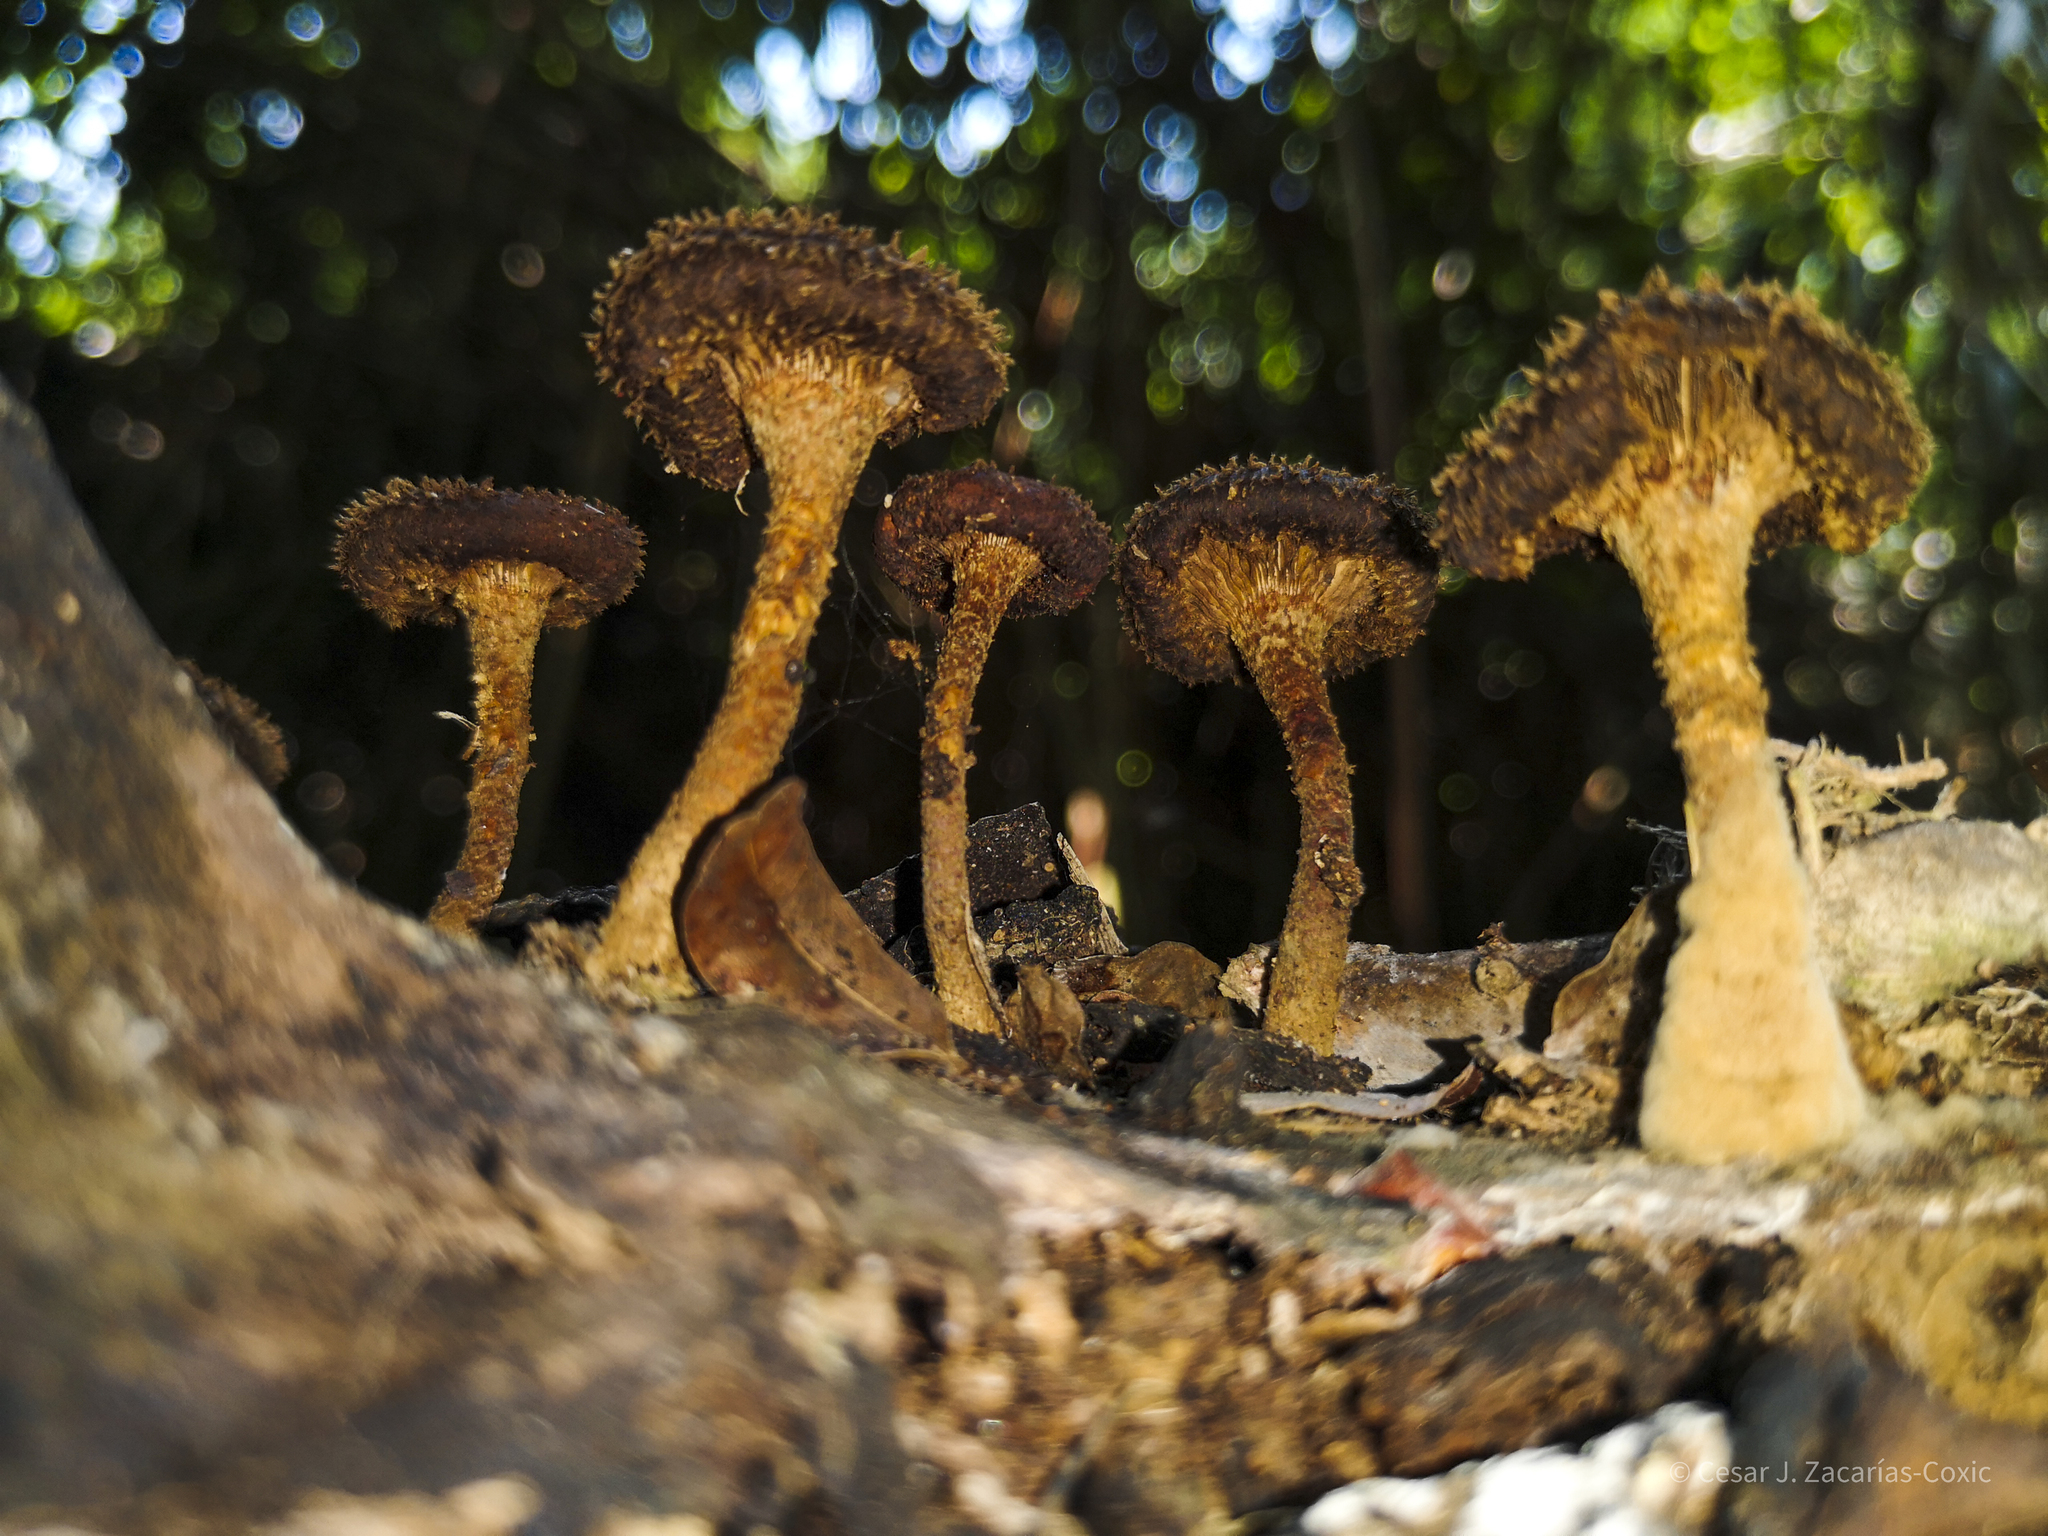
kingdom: Fungi
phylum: Basidiomycota
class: Agaricomycetes
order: Polyporales
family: Polyporaceae
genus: Lentinus
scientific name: Lentinus berteroi
